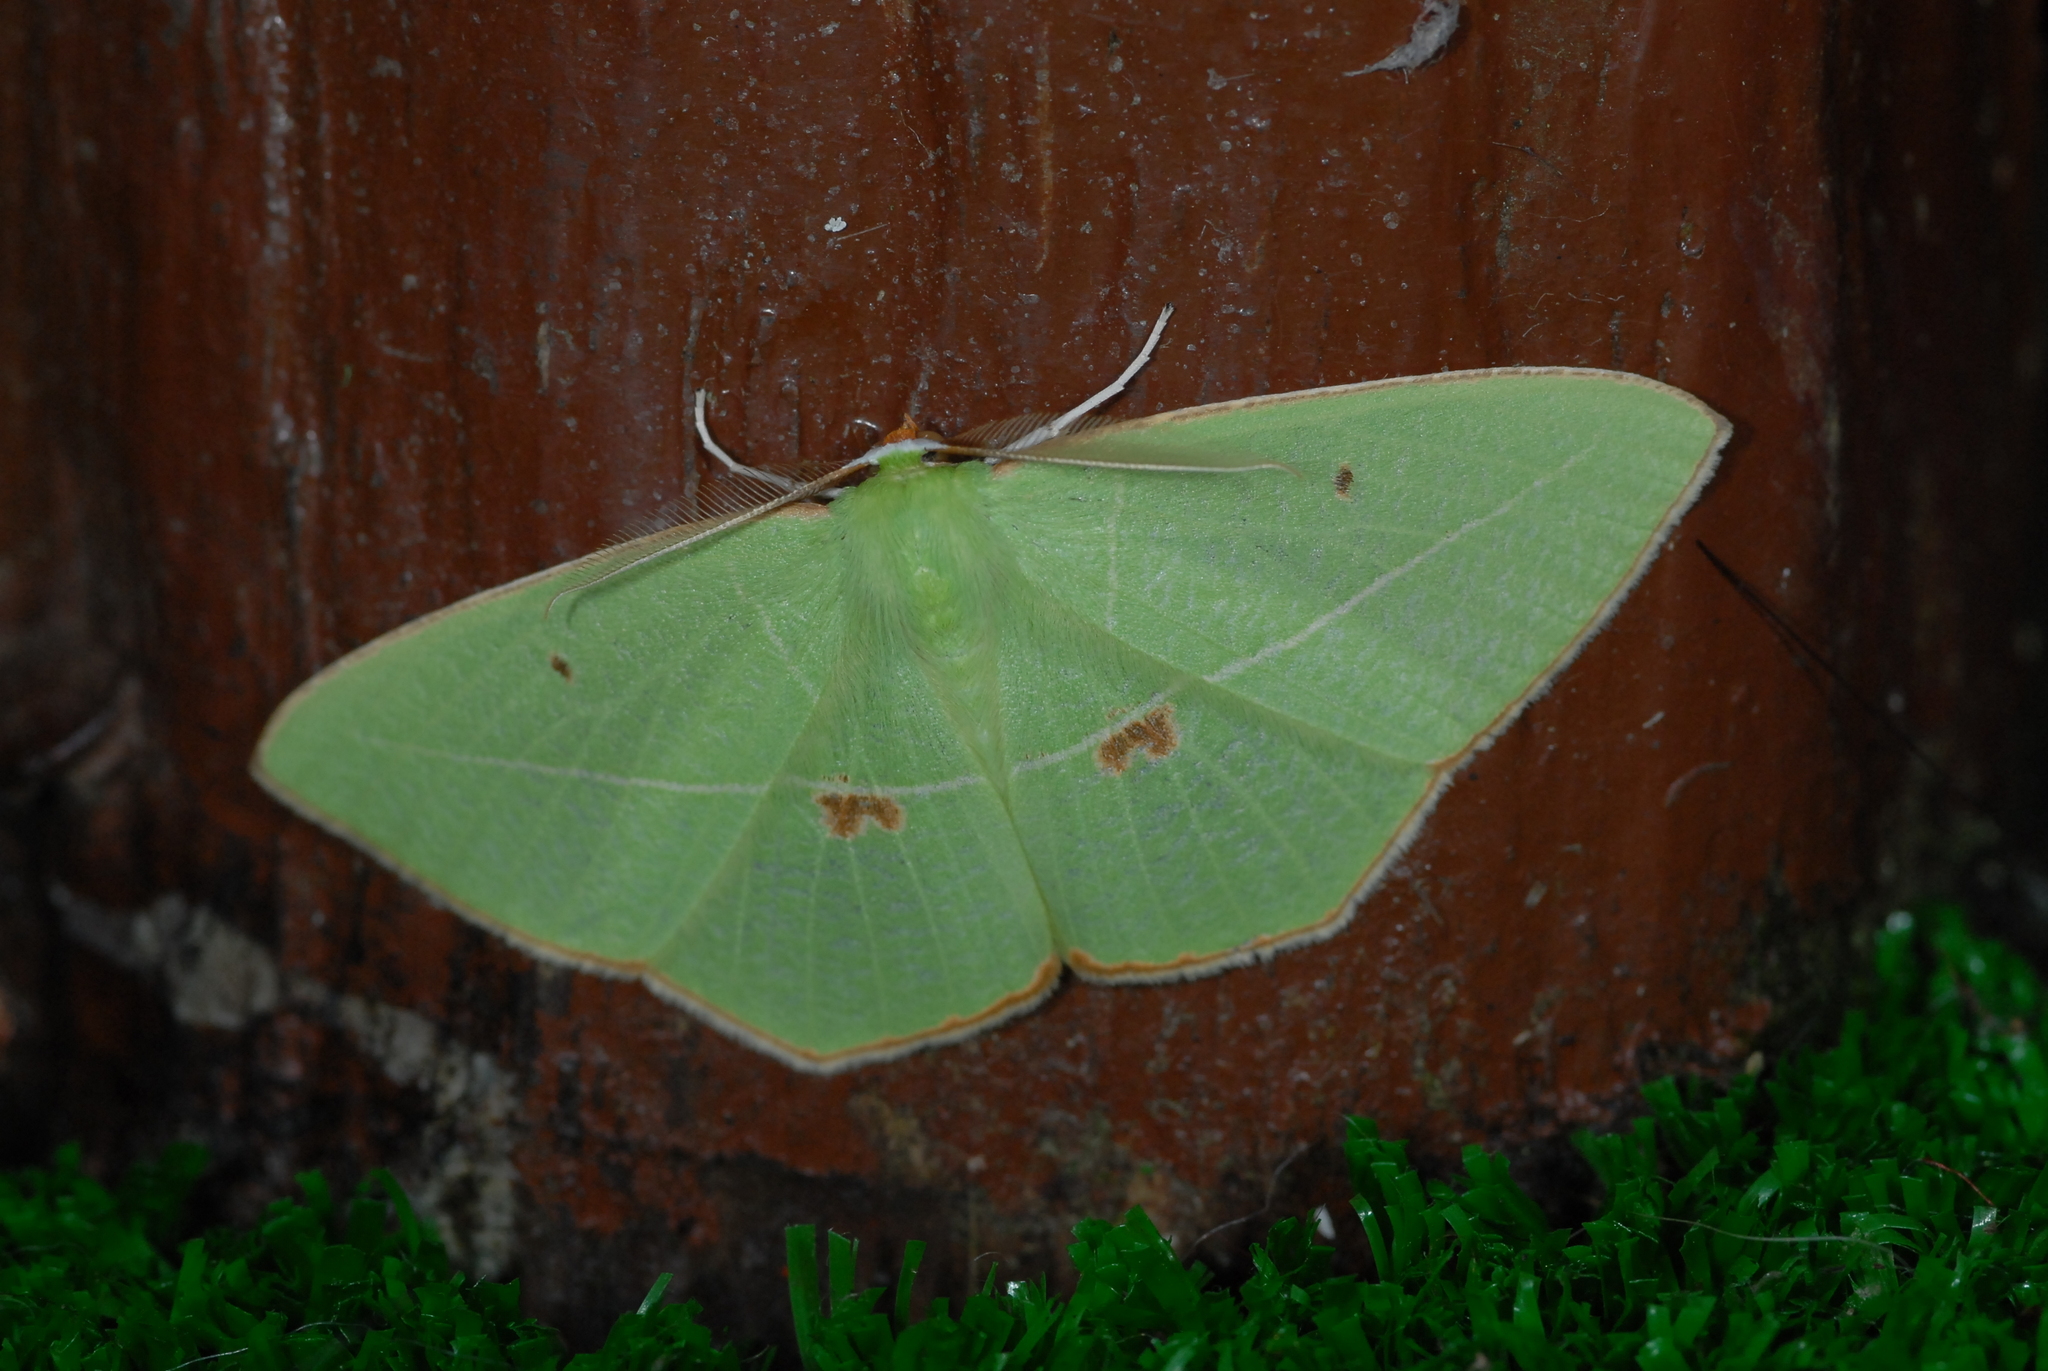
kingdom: Animalia
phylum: Arthropoda
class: Insecta
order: Lepidoptera
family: Geometridae
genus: Tanaoctenia
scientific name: Tanaoctenia haliaria
